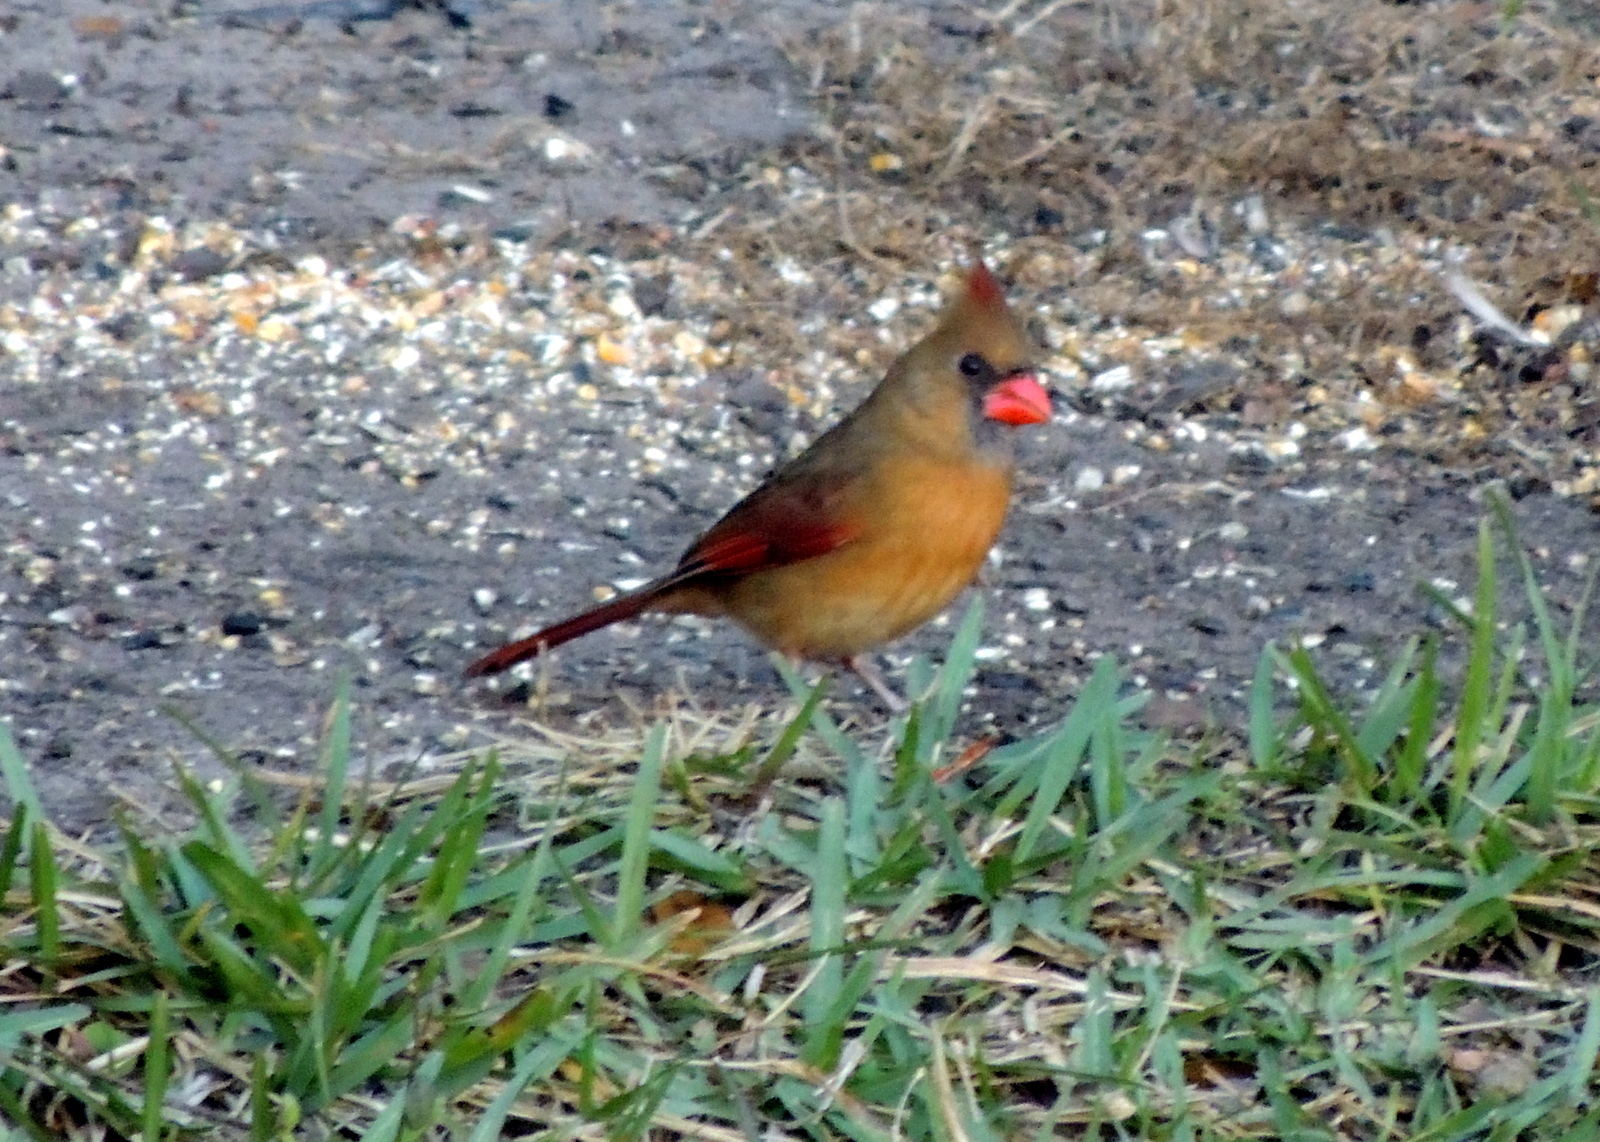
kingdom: Animalia
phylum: Chordata
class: Aves
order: Passeriformes
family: Cardinalidae
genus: Cardinalis
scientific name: Cardinalis cardinalis
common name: Northern cardinal
